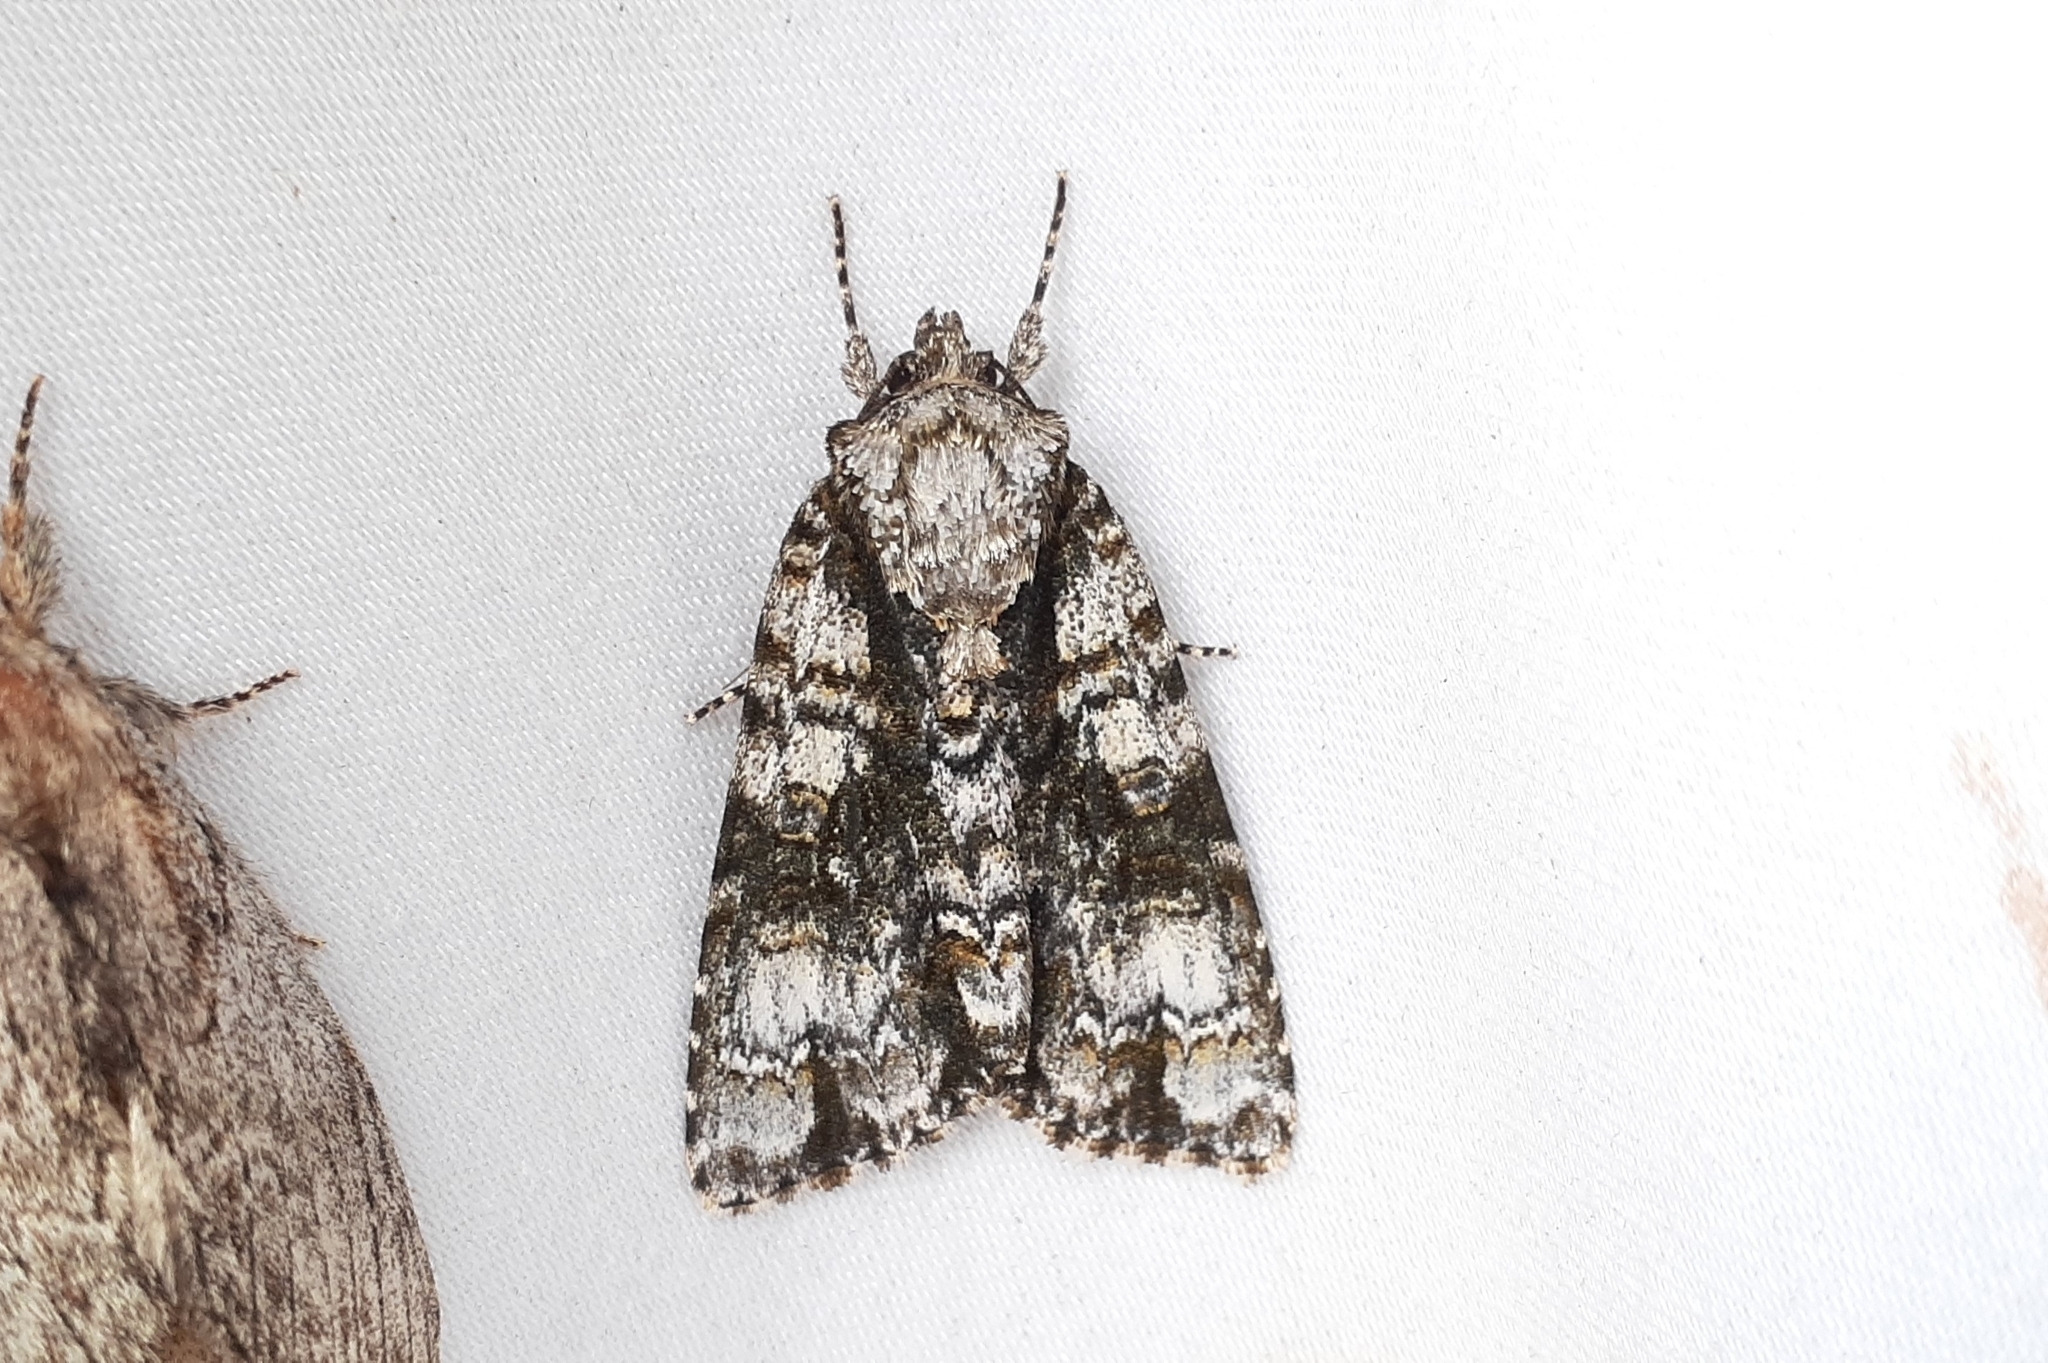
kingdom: Animalia
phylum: Arthropoda
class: Insecta
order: Lepidoptera
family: Noctuidae
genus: Acronicta
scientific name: Acronicta superans
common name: Splendid dagger
